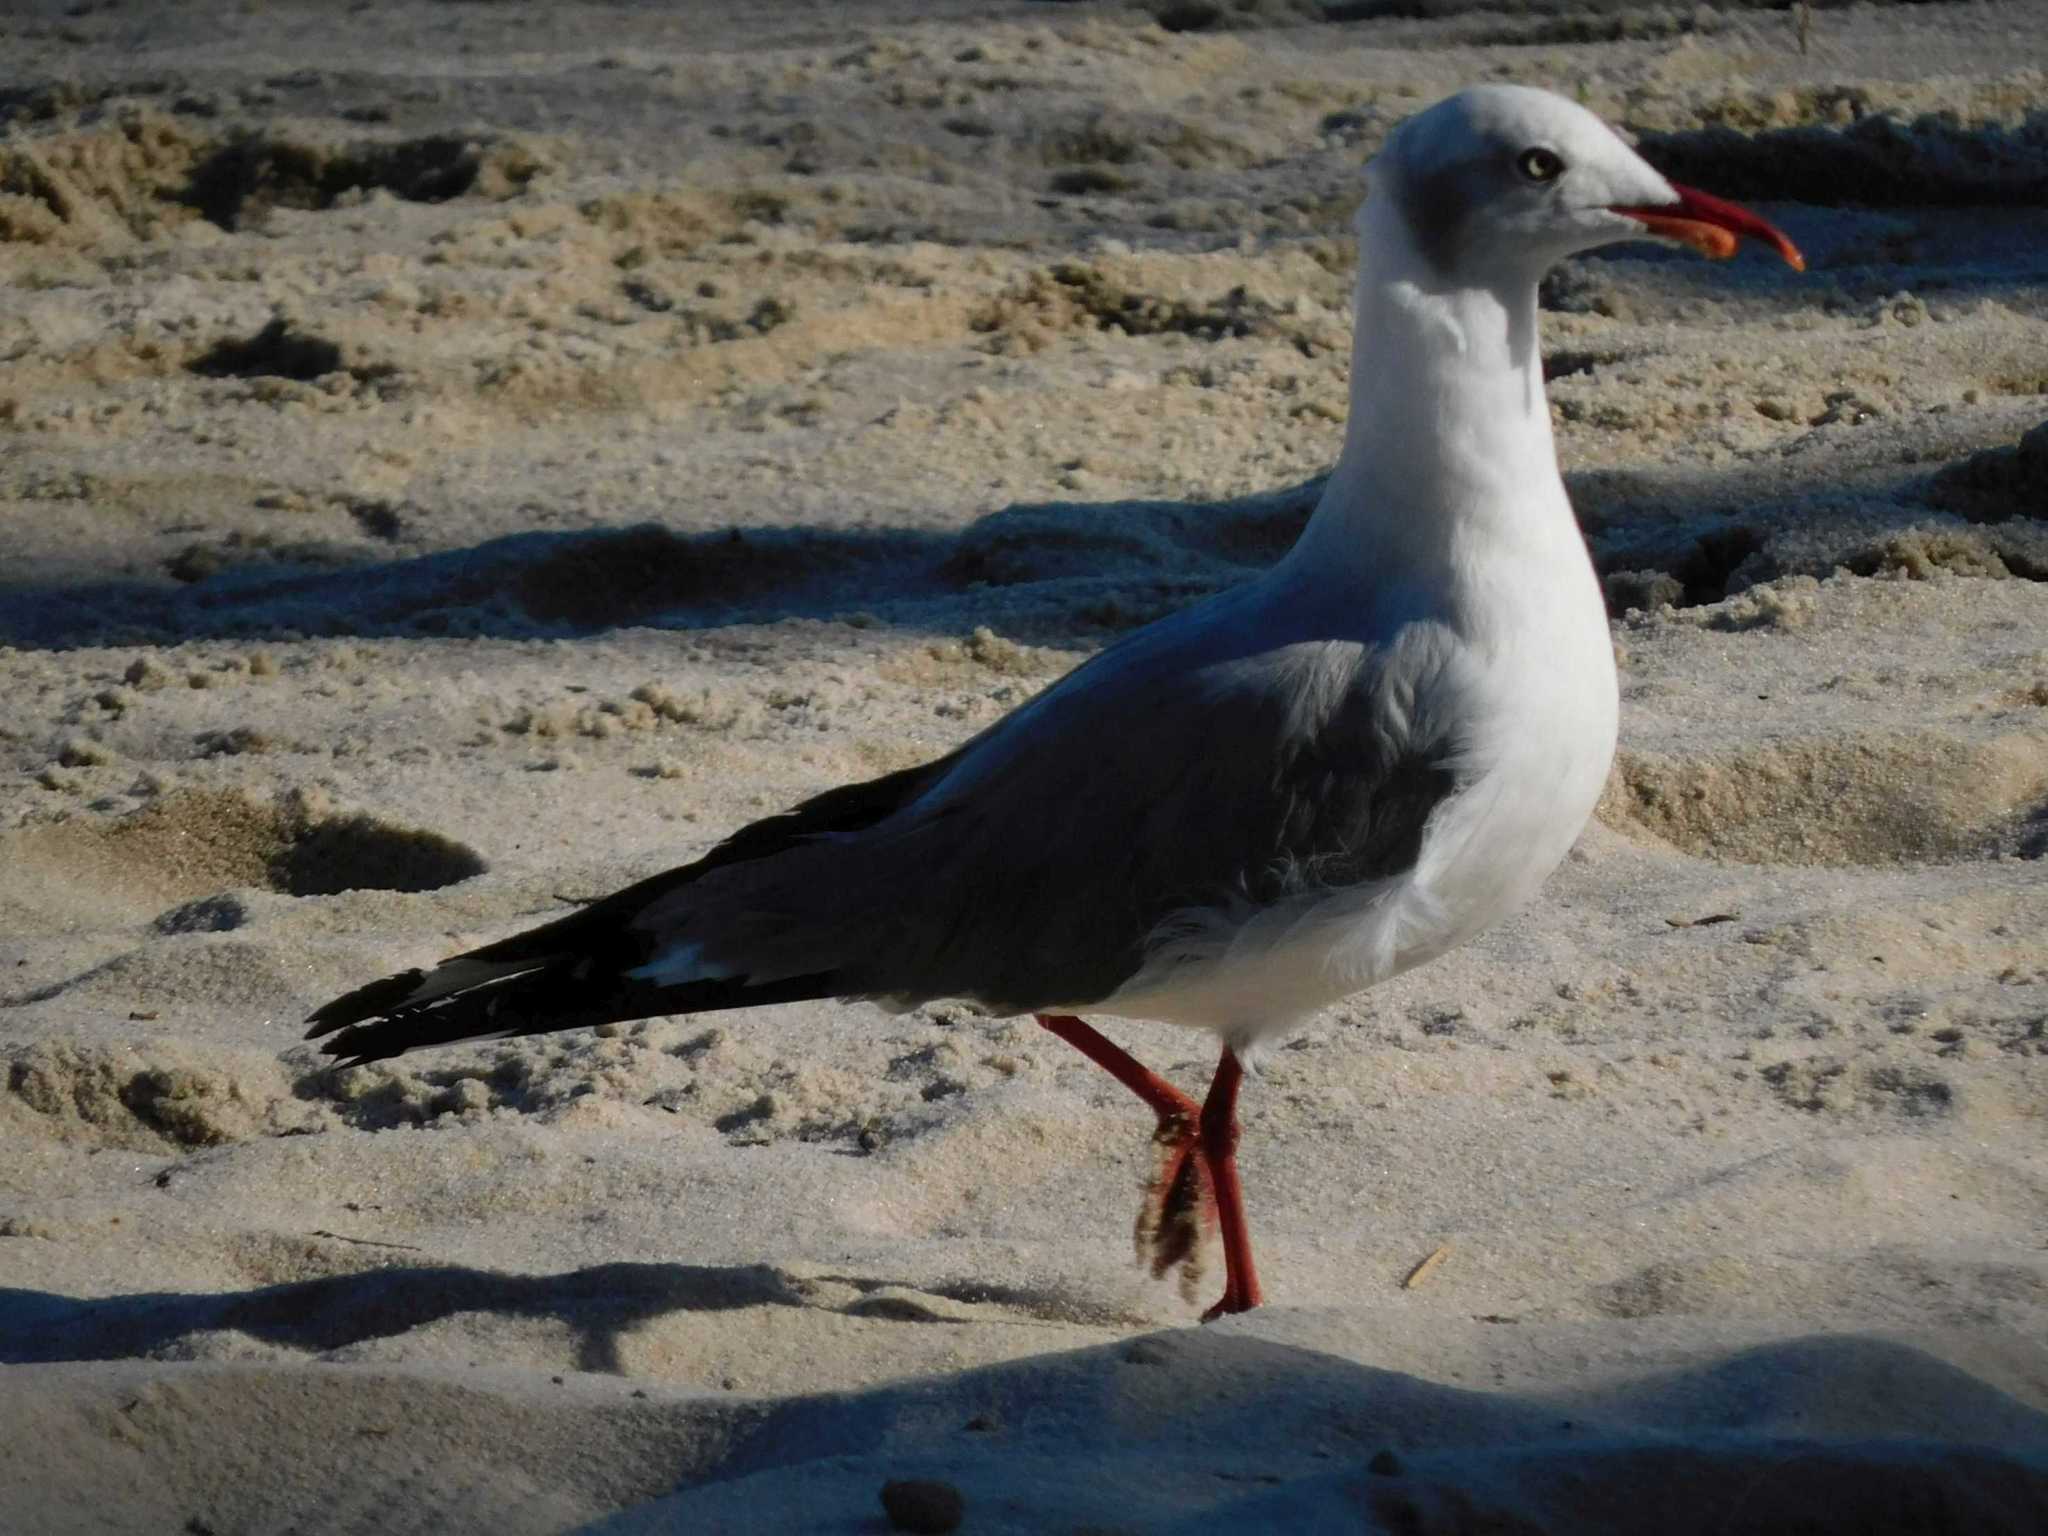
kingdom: Animalia
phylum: Chordata
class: Aves
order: Charadriiformes
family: Laridae
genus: Chroicocephalus
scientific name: Chroicocephalus cirrocephalus
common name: Grey-headed gull
